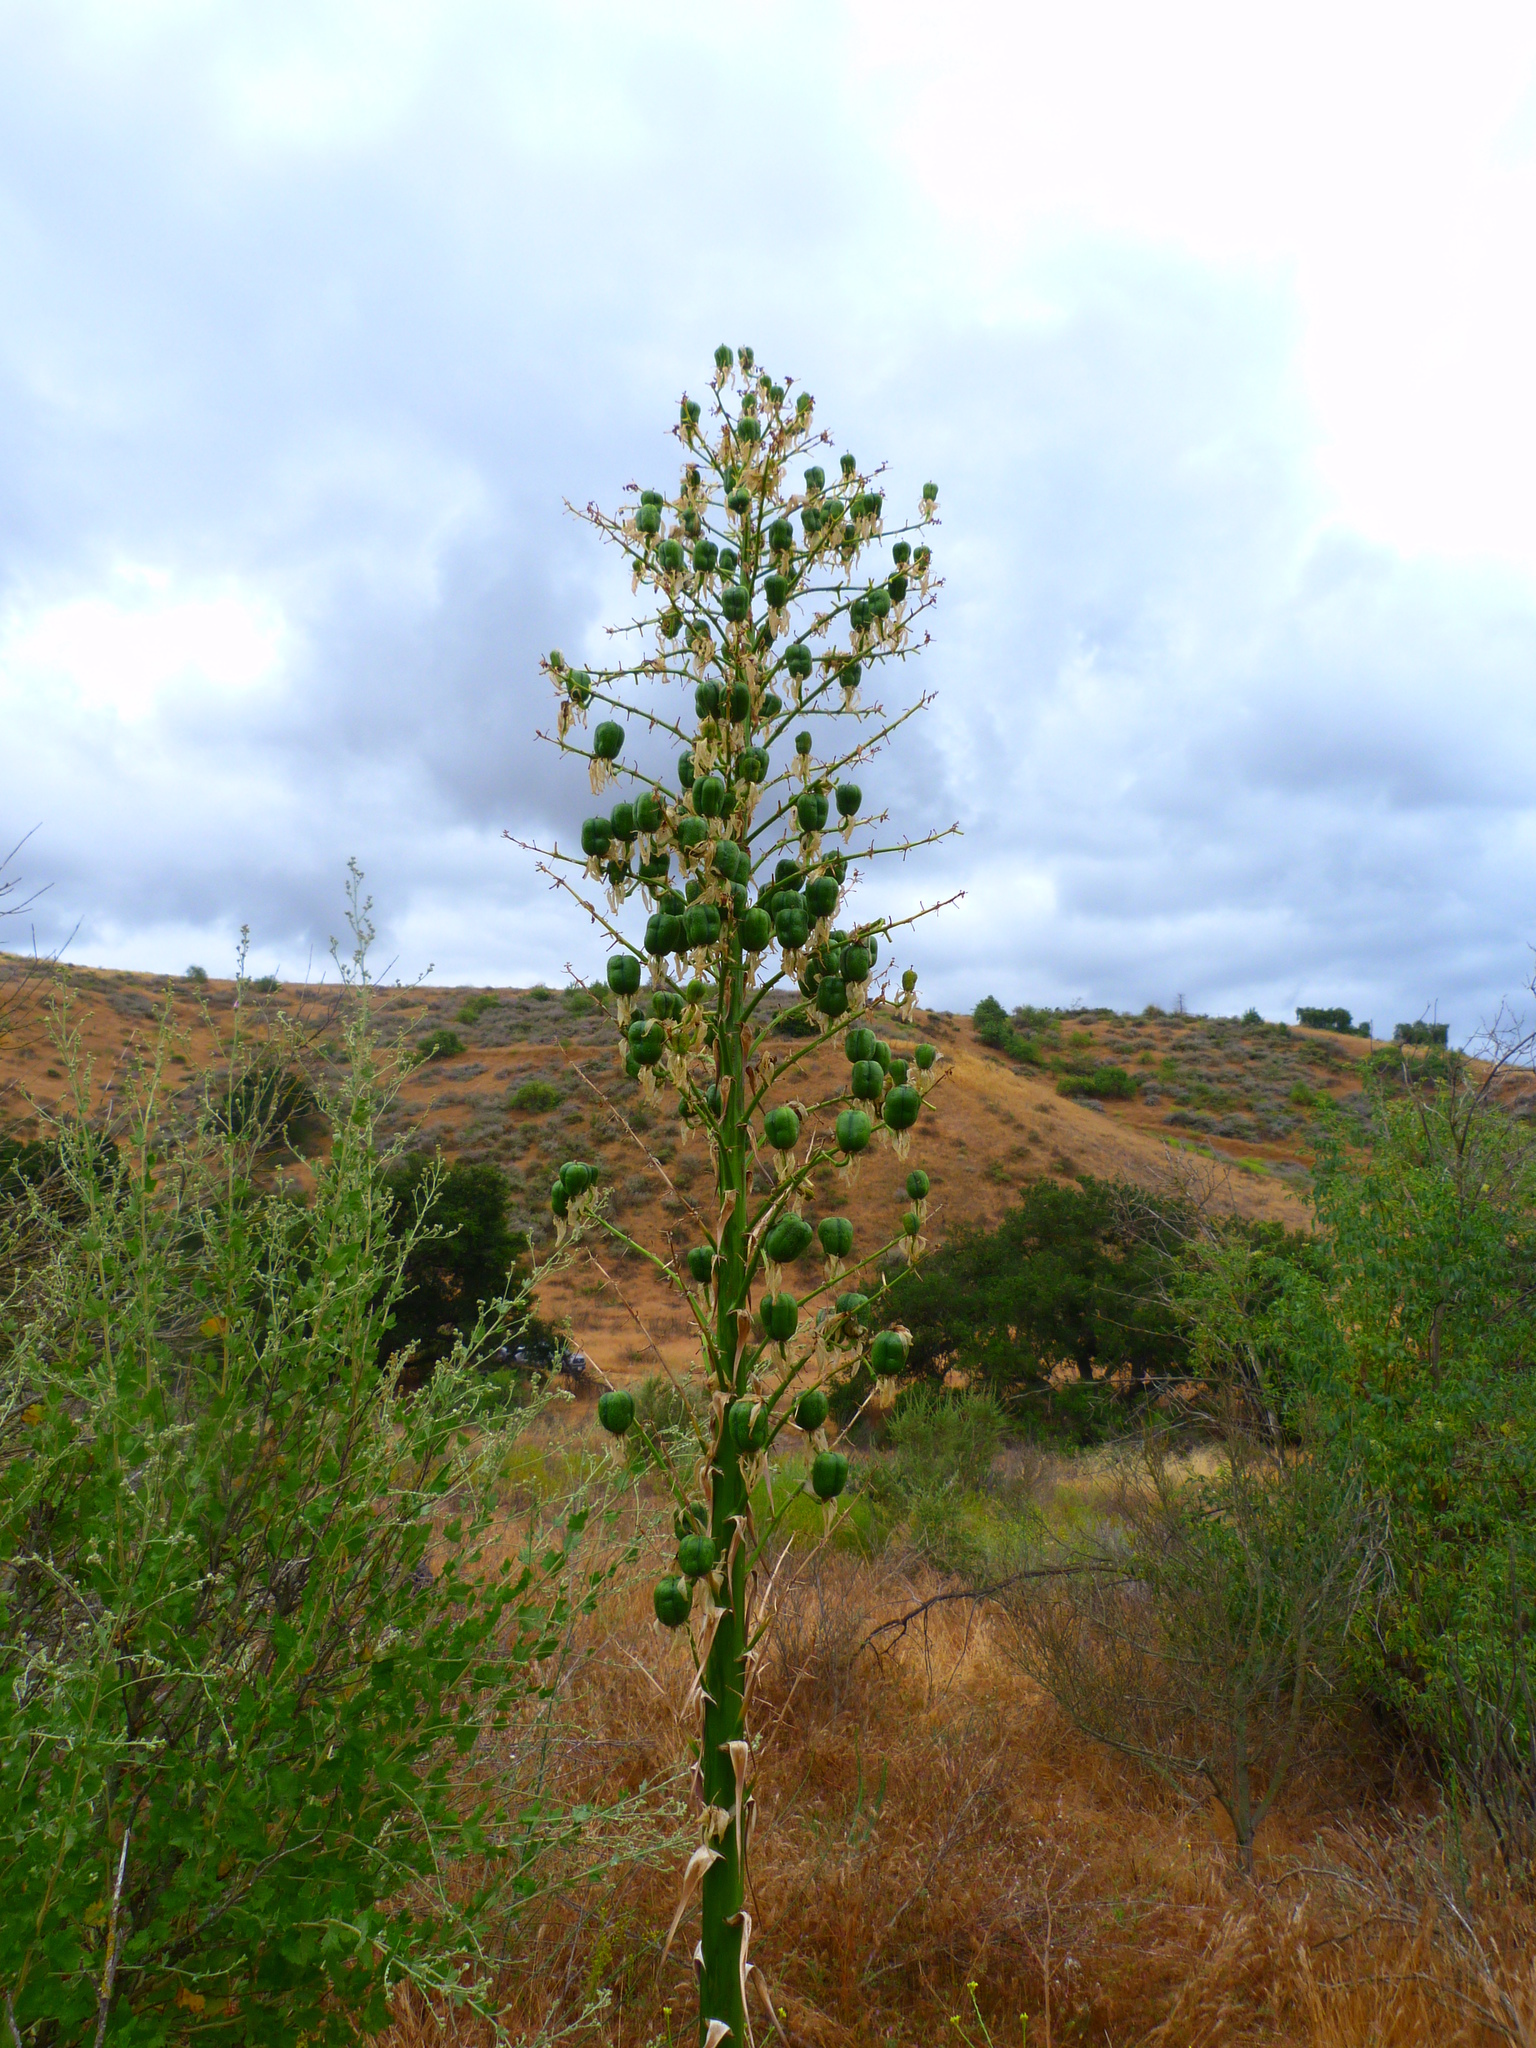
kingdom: Plantae
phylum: Tracheophyta
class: Liliopsida
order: Asparagales
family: Asparagaceae
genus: Hesperoyucca
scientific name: Hesperoyucca whipplei
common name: Our lord's-candle
